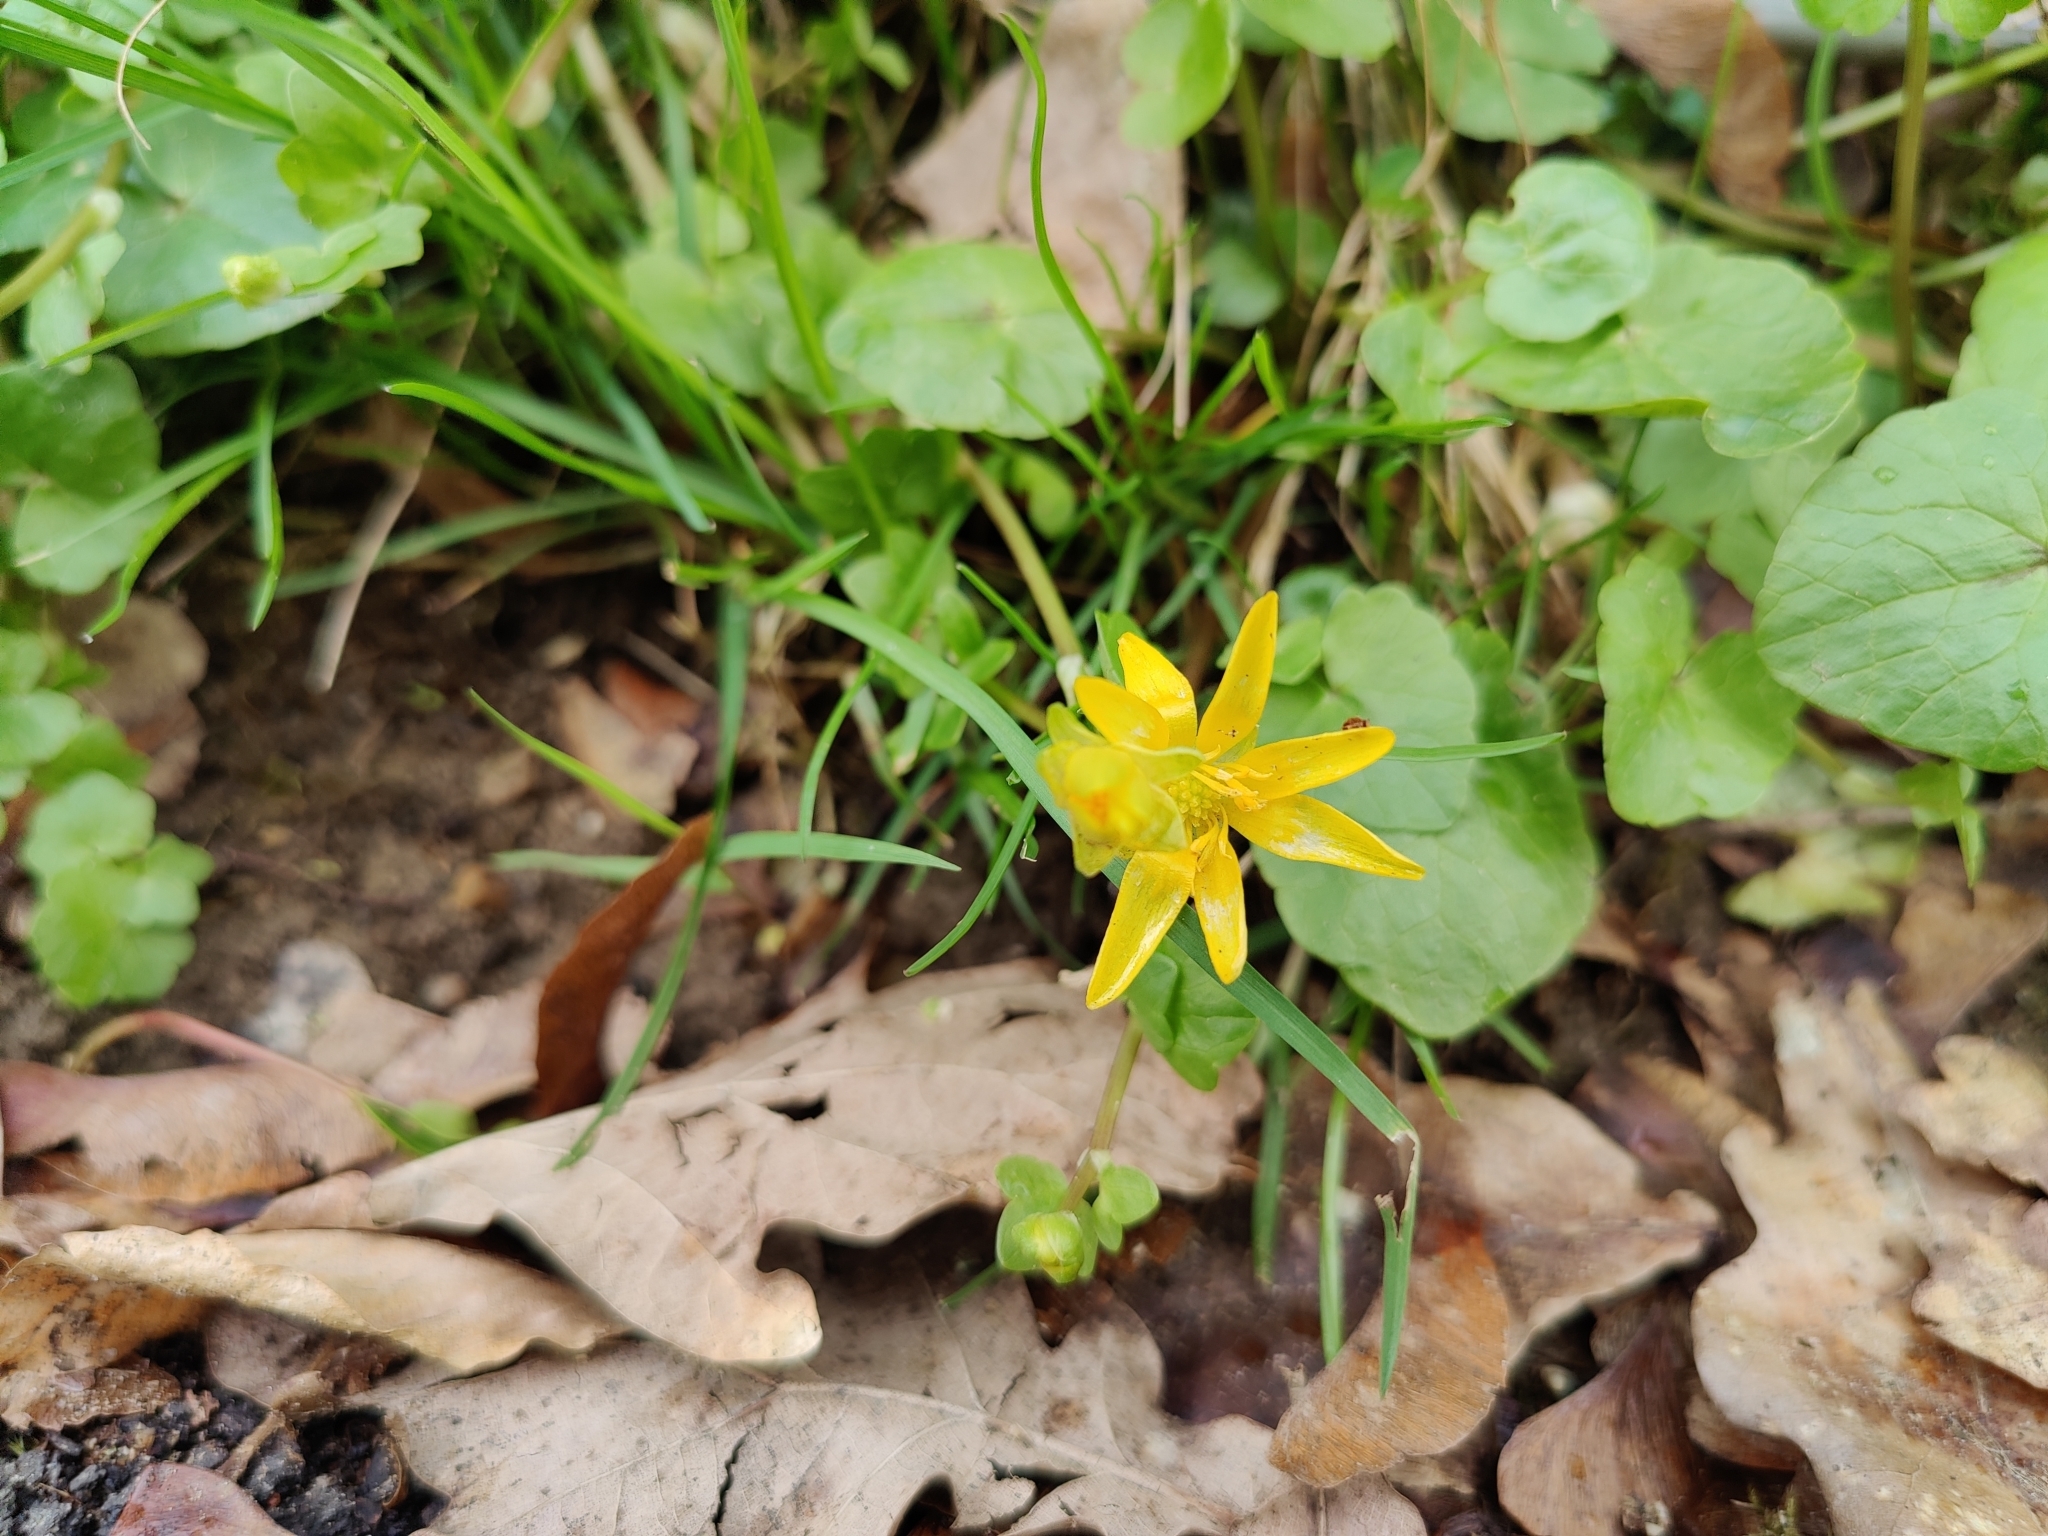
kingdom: Plantae
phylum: Tracheophyta
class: Magnoliopsida
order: Ranunculales
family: Ranunculaceae
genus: Ficaria
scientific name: Ficaria verna
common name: Lesser celandine
